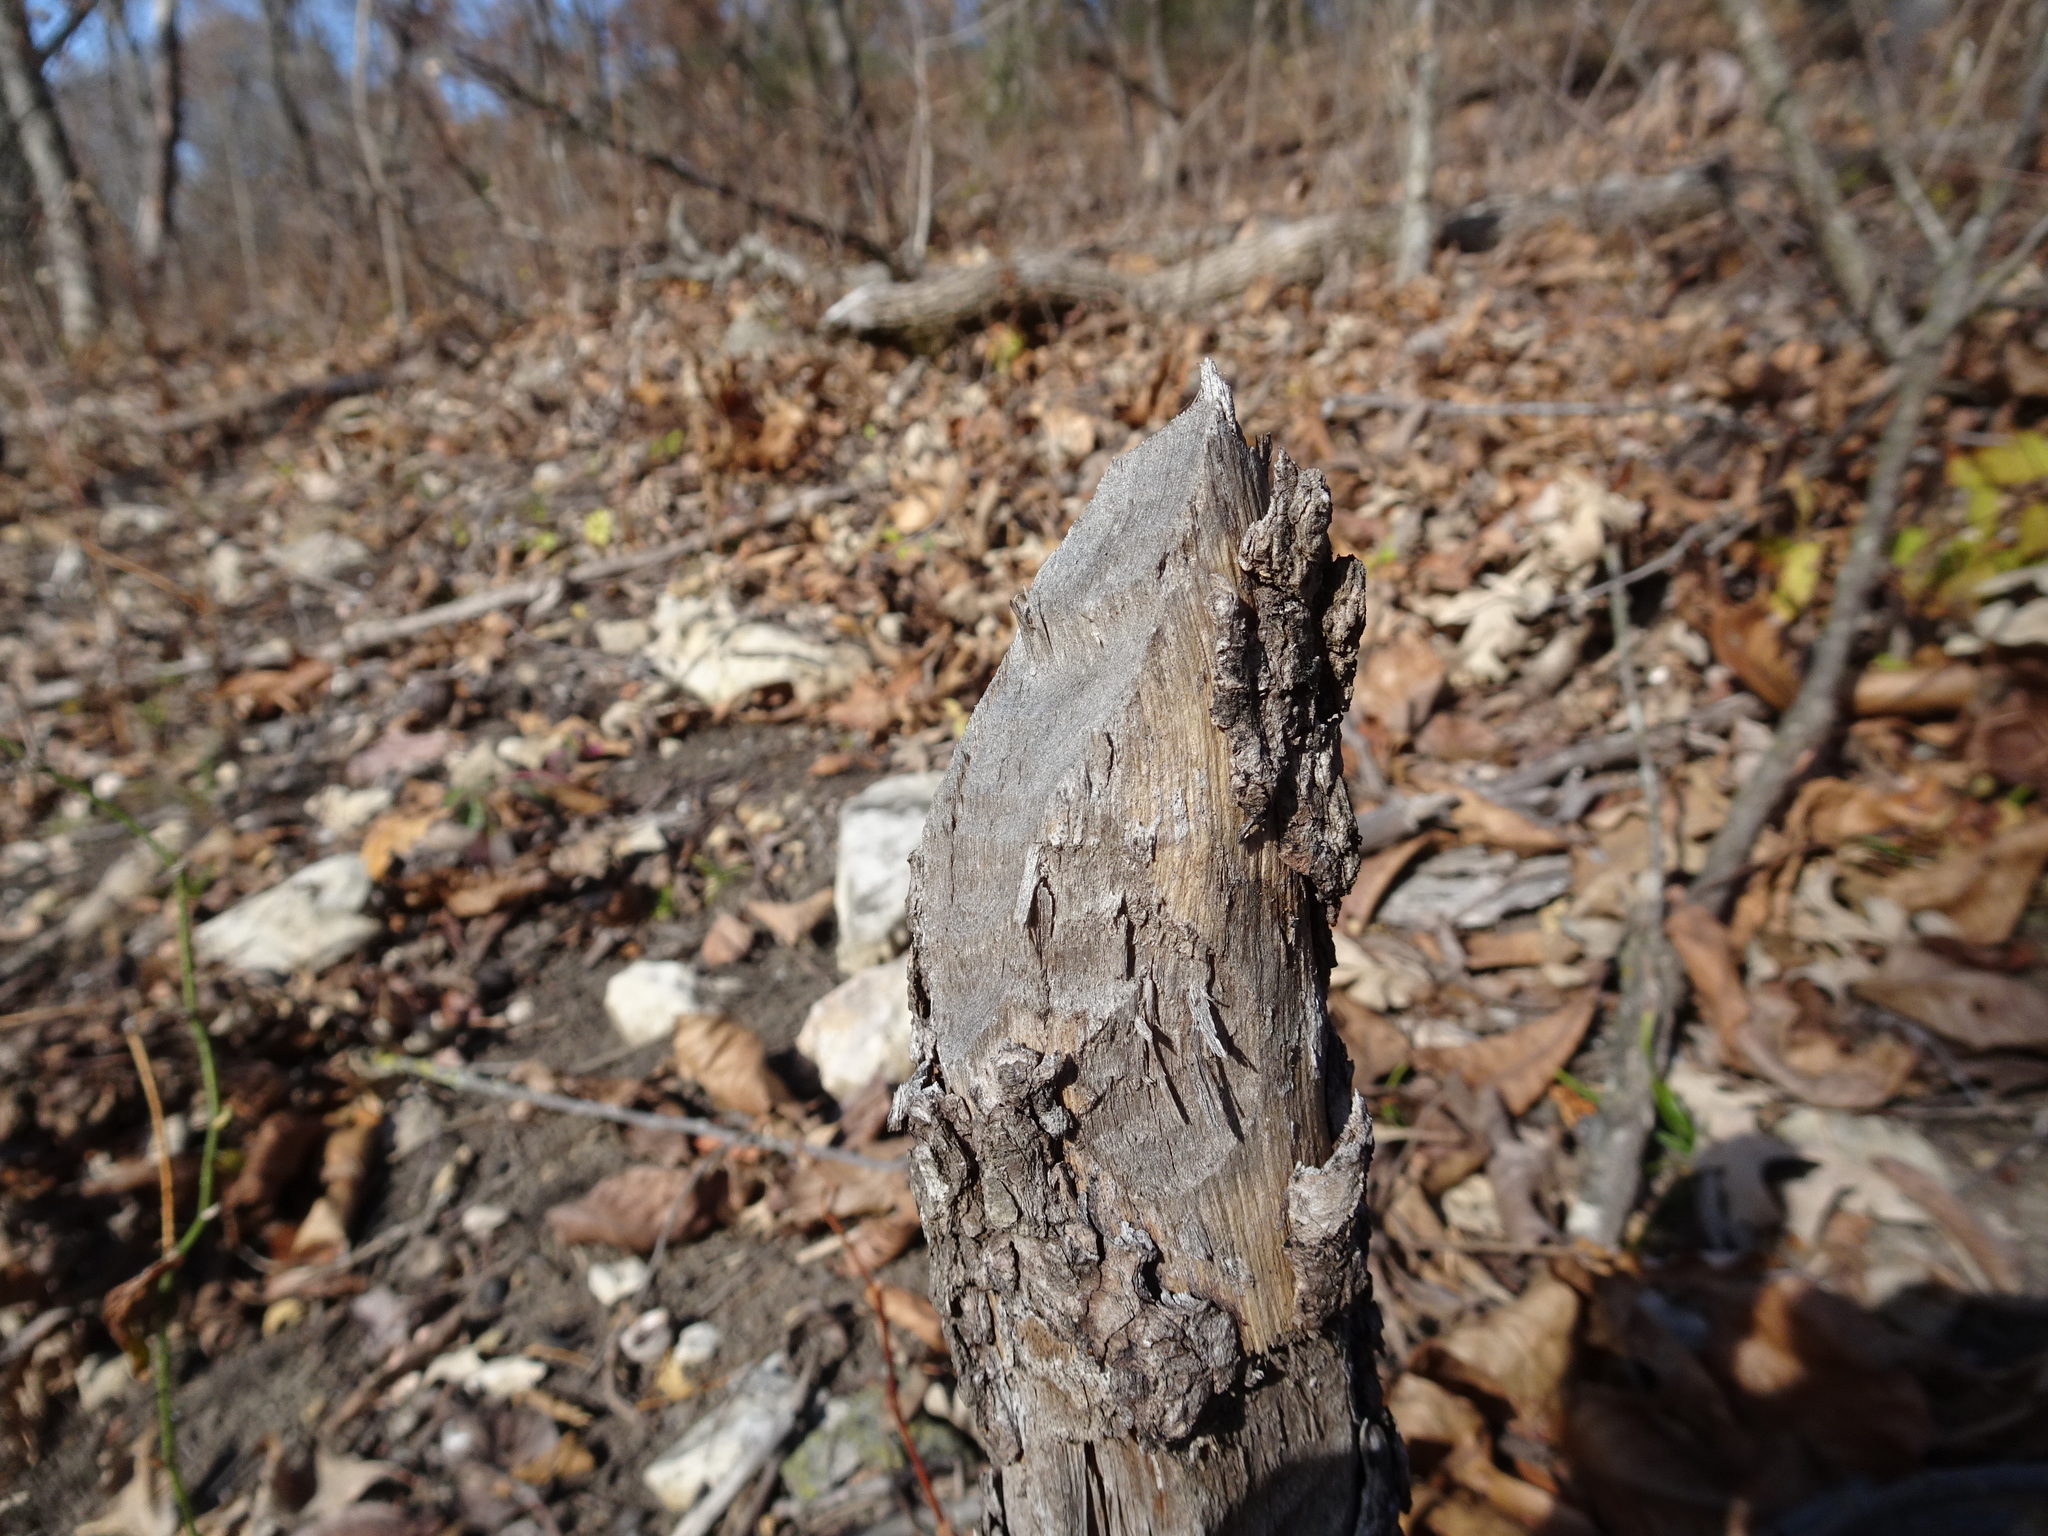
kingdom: Animalia
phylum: Chordata
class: Mammalia
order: Rodentia
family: Castoridae
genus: Castor
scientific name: Castor canadensis
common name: American beaver
